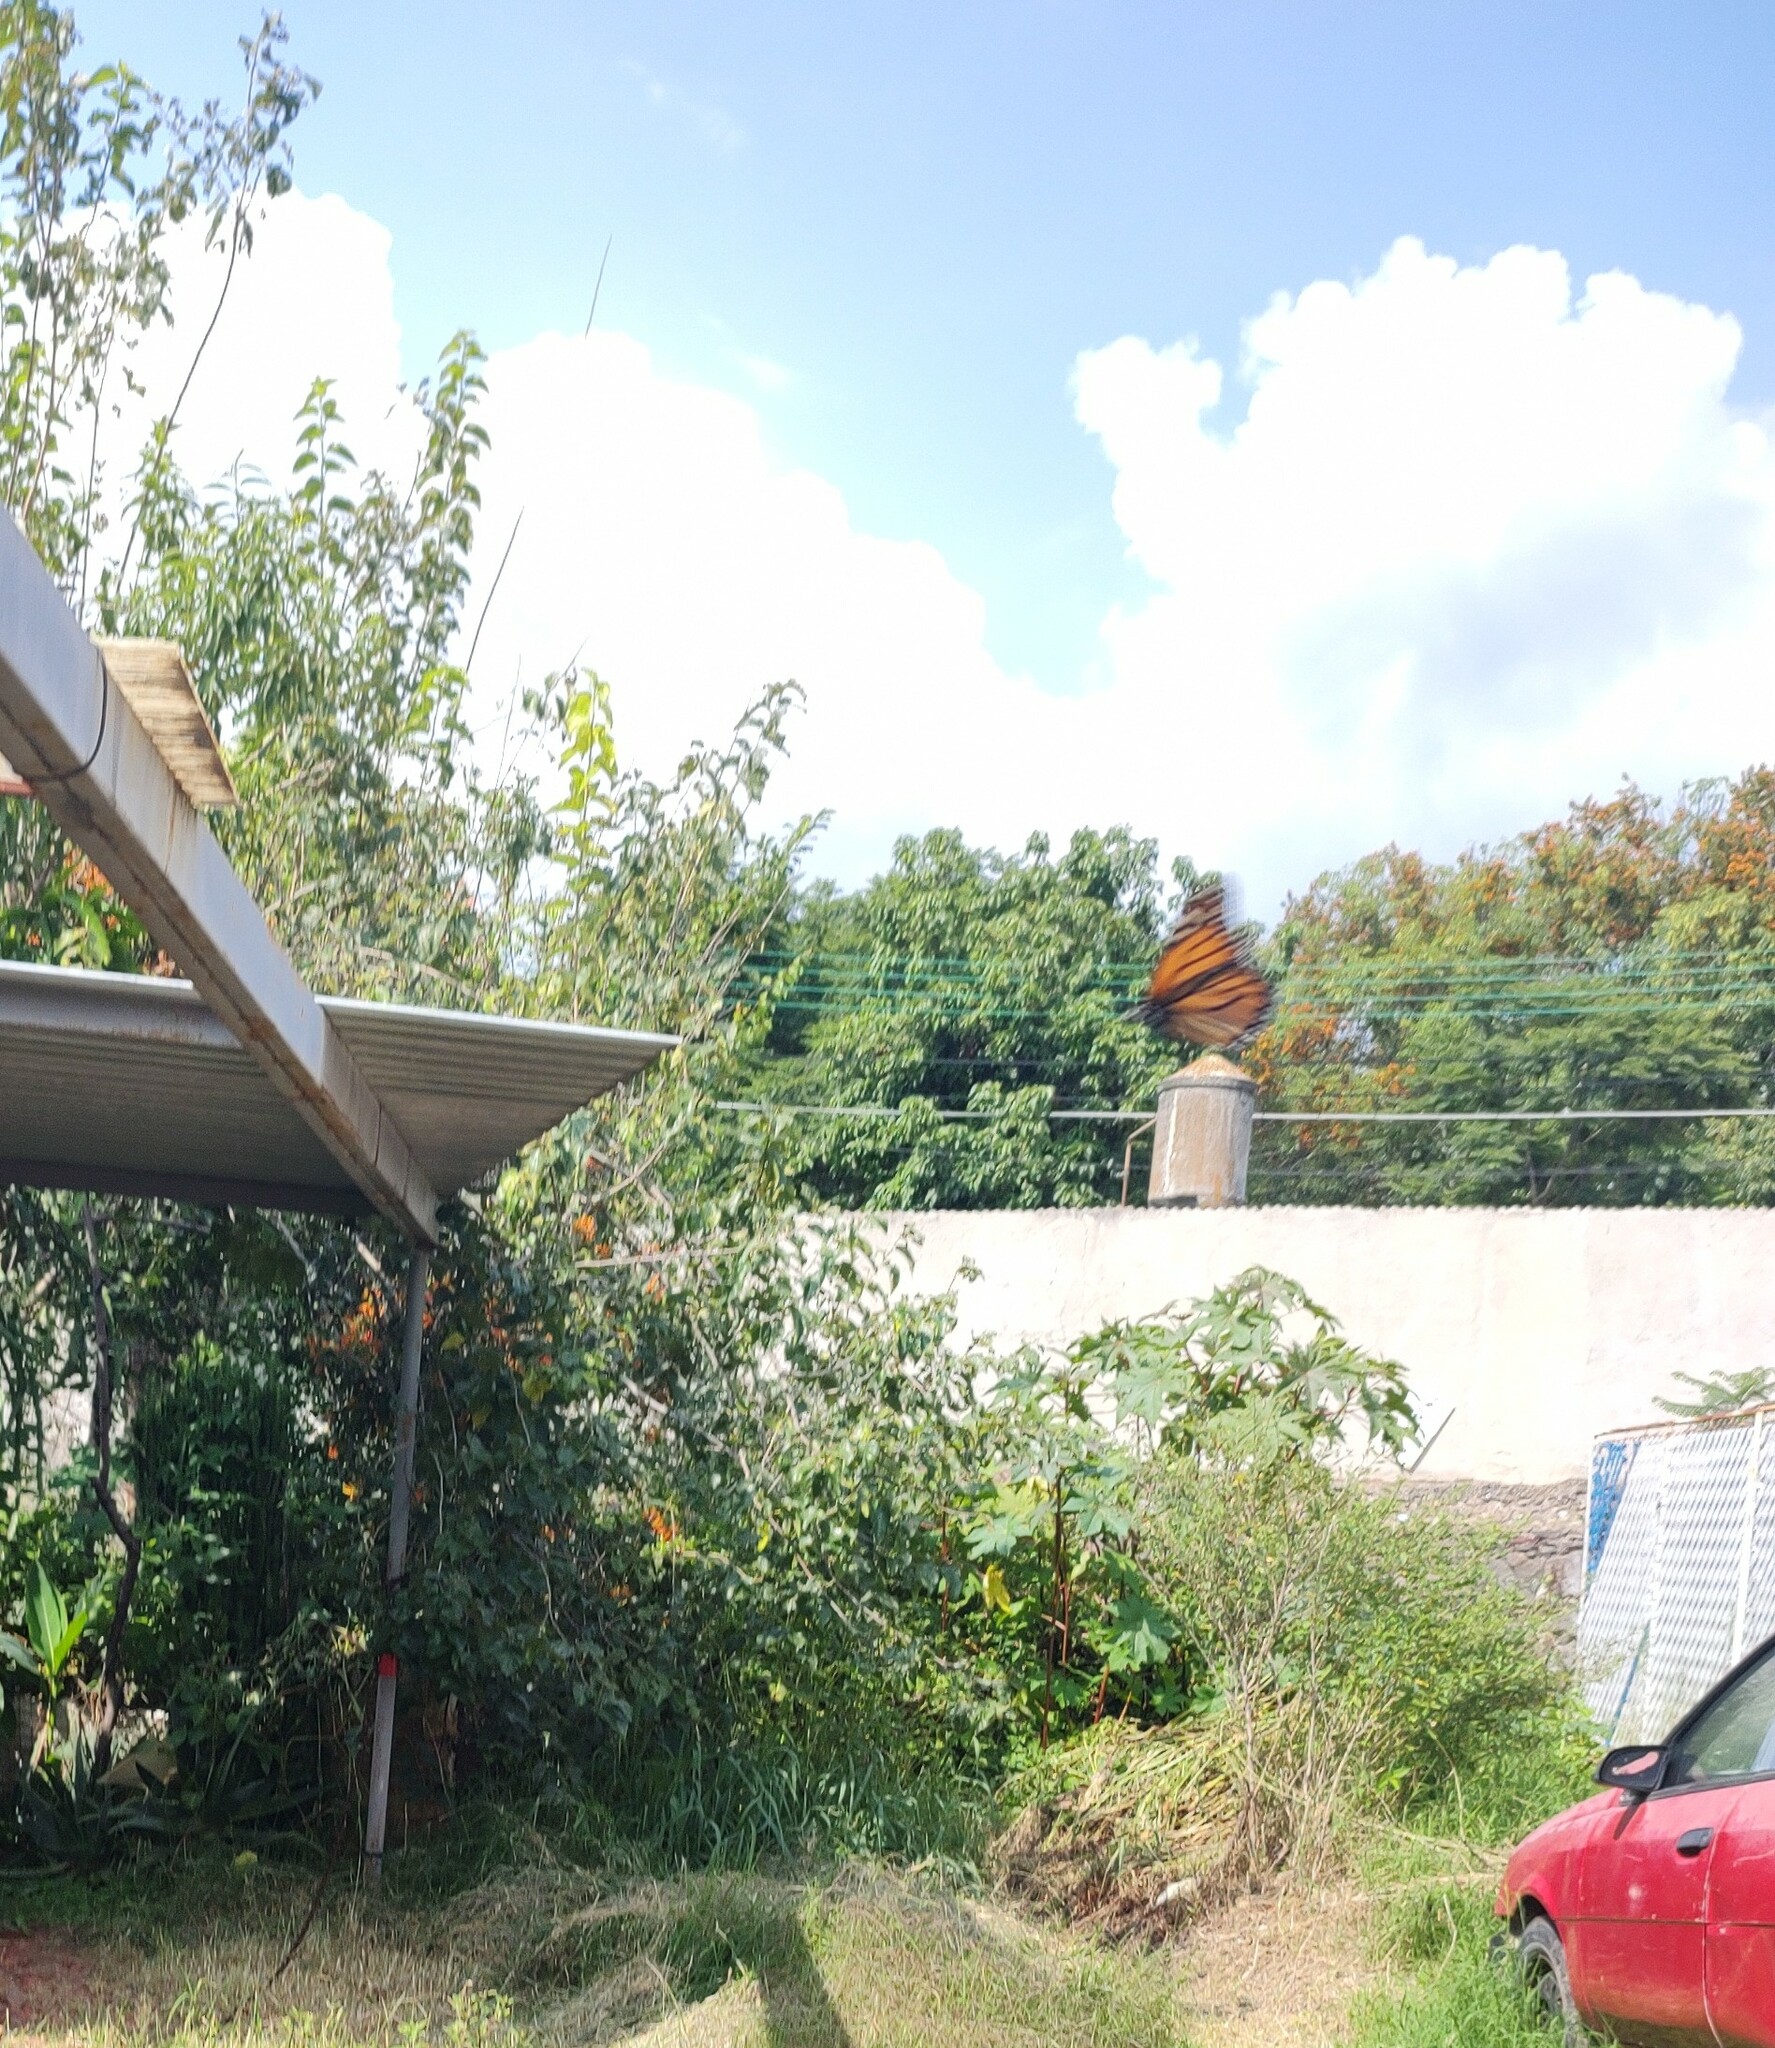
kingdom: Animalia
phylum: Arthropoda
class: Insecta
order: Lepidoptera
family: Nymphalidae
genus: Danaus
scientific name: Danaus plexippus
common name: Monarch
